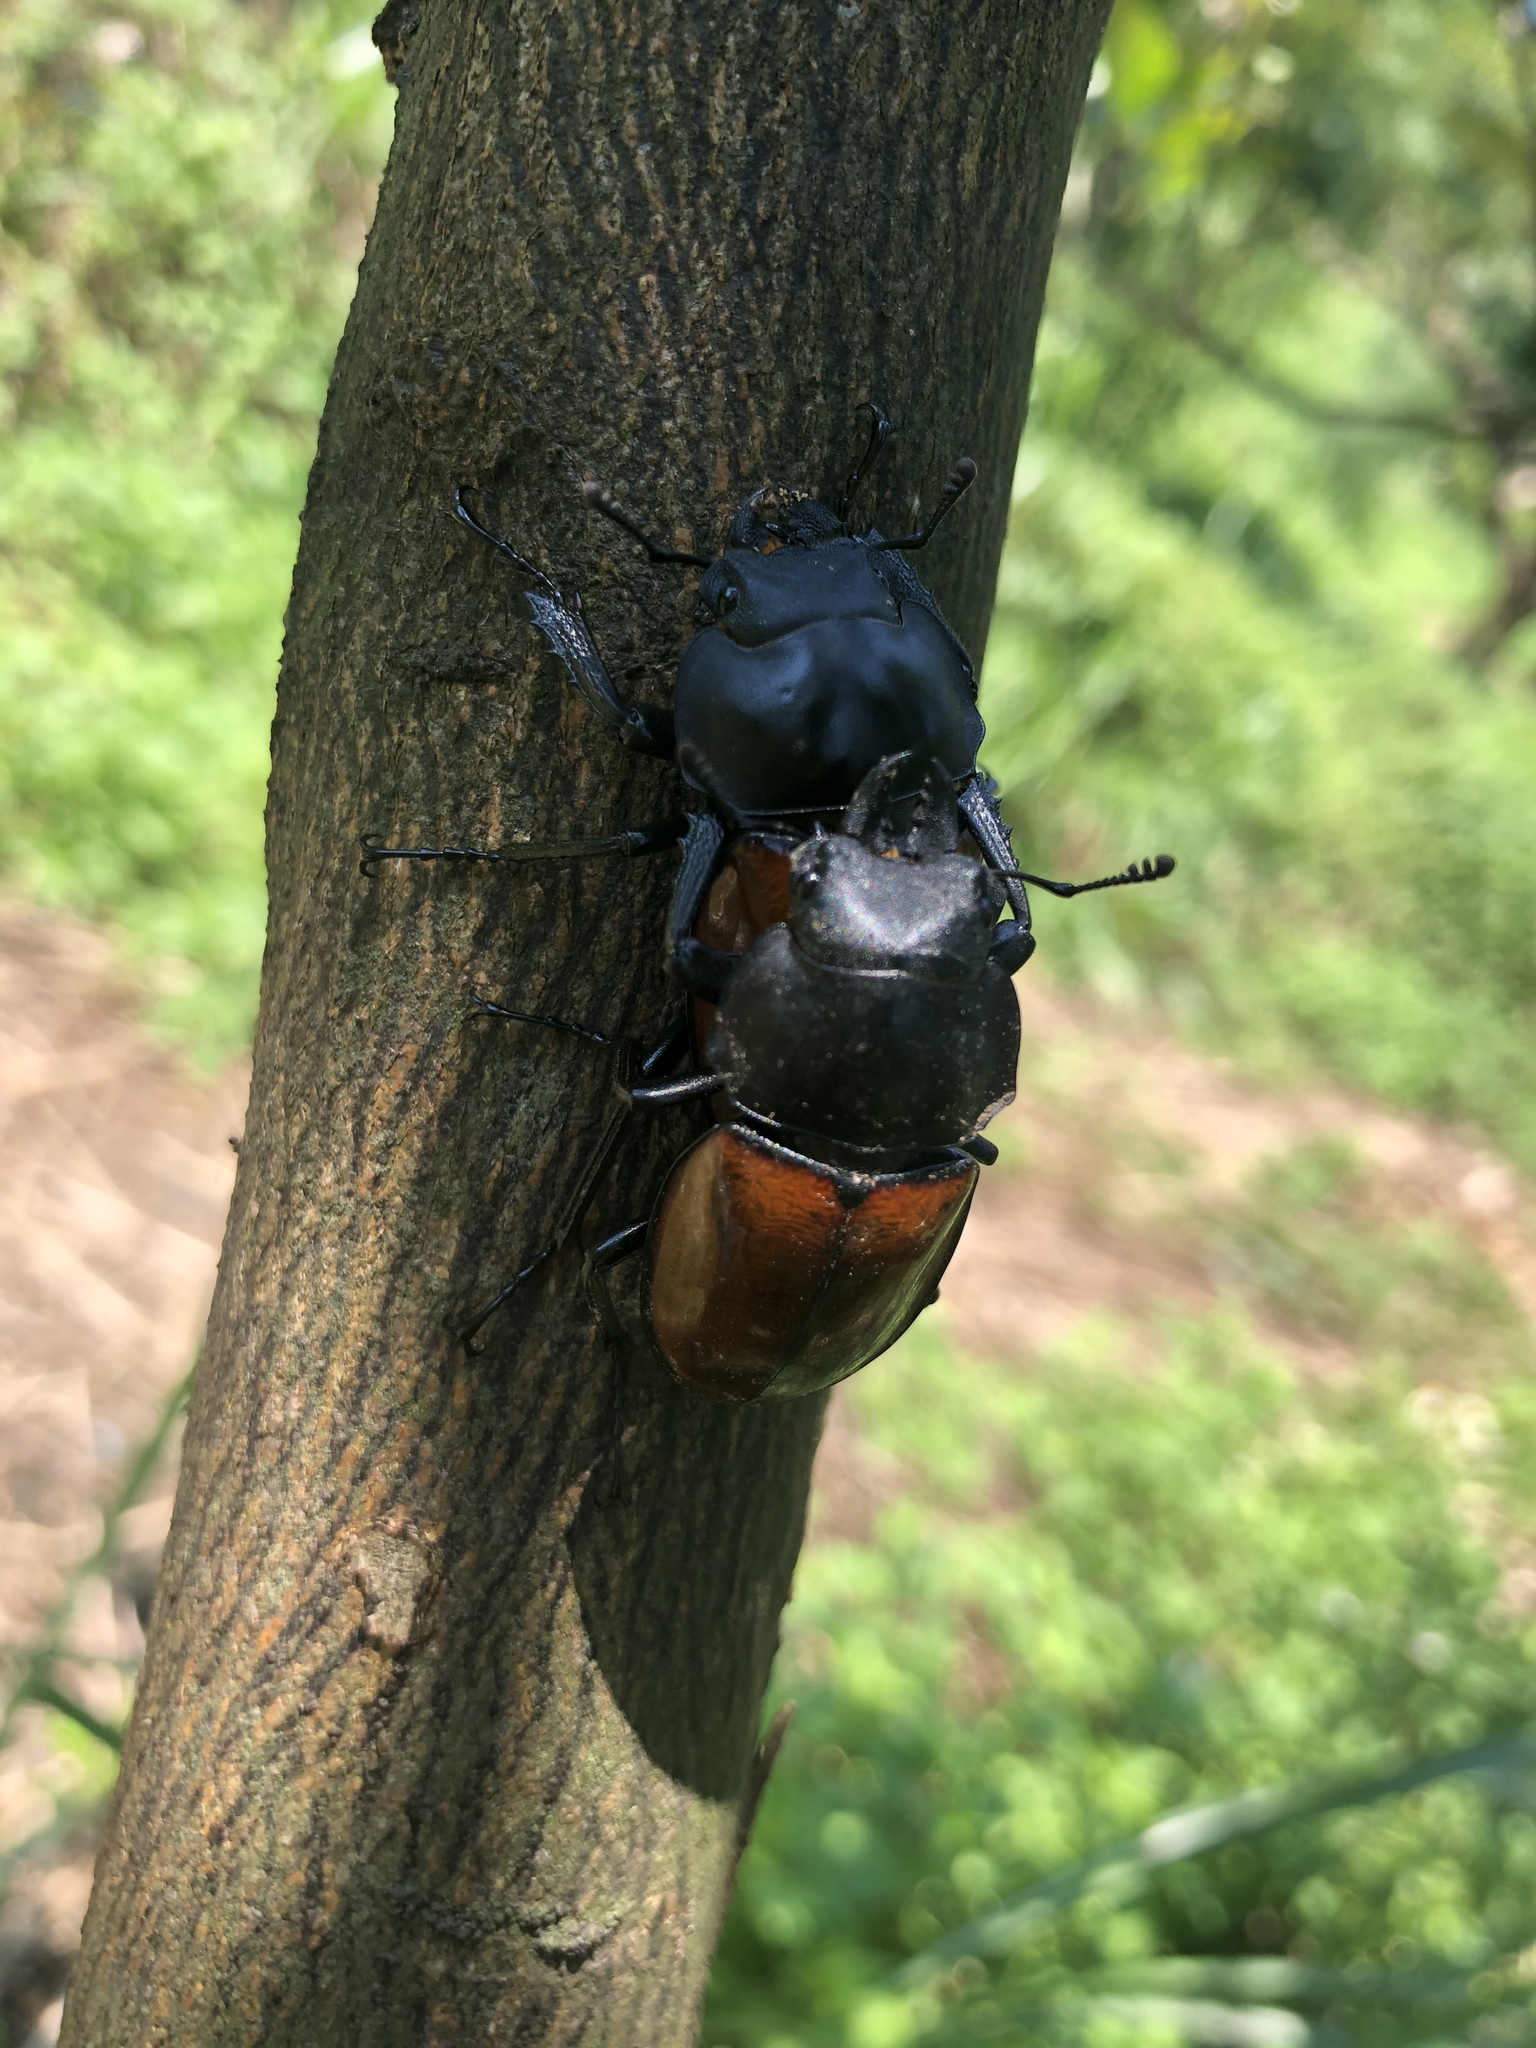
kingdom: Animalia
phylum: Arthropoda
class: Insecta
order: Coleoptera
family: Lucanidae
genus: Neolucanus
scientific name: Neolucanus swinhoei
